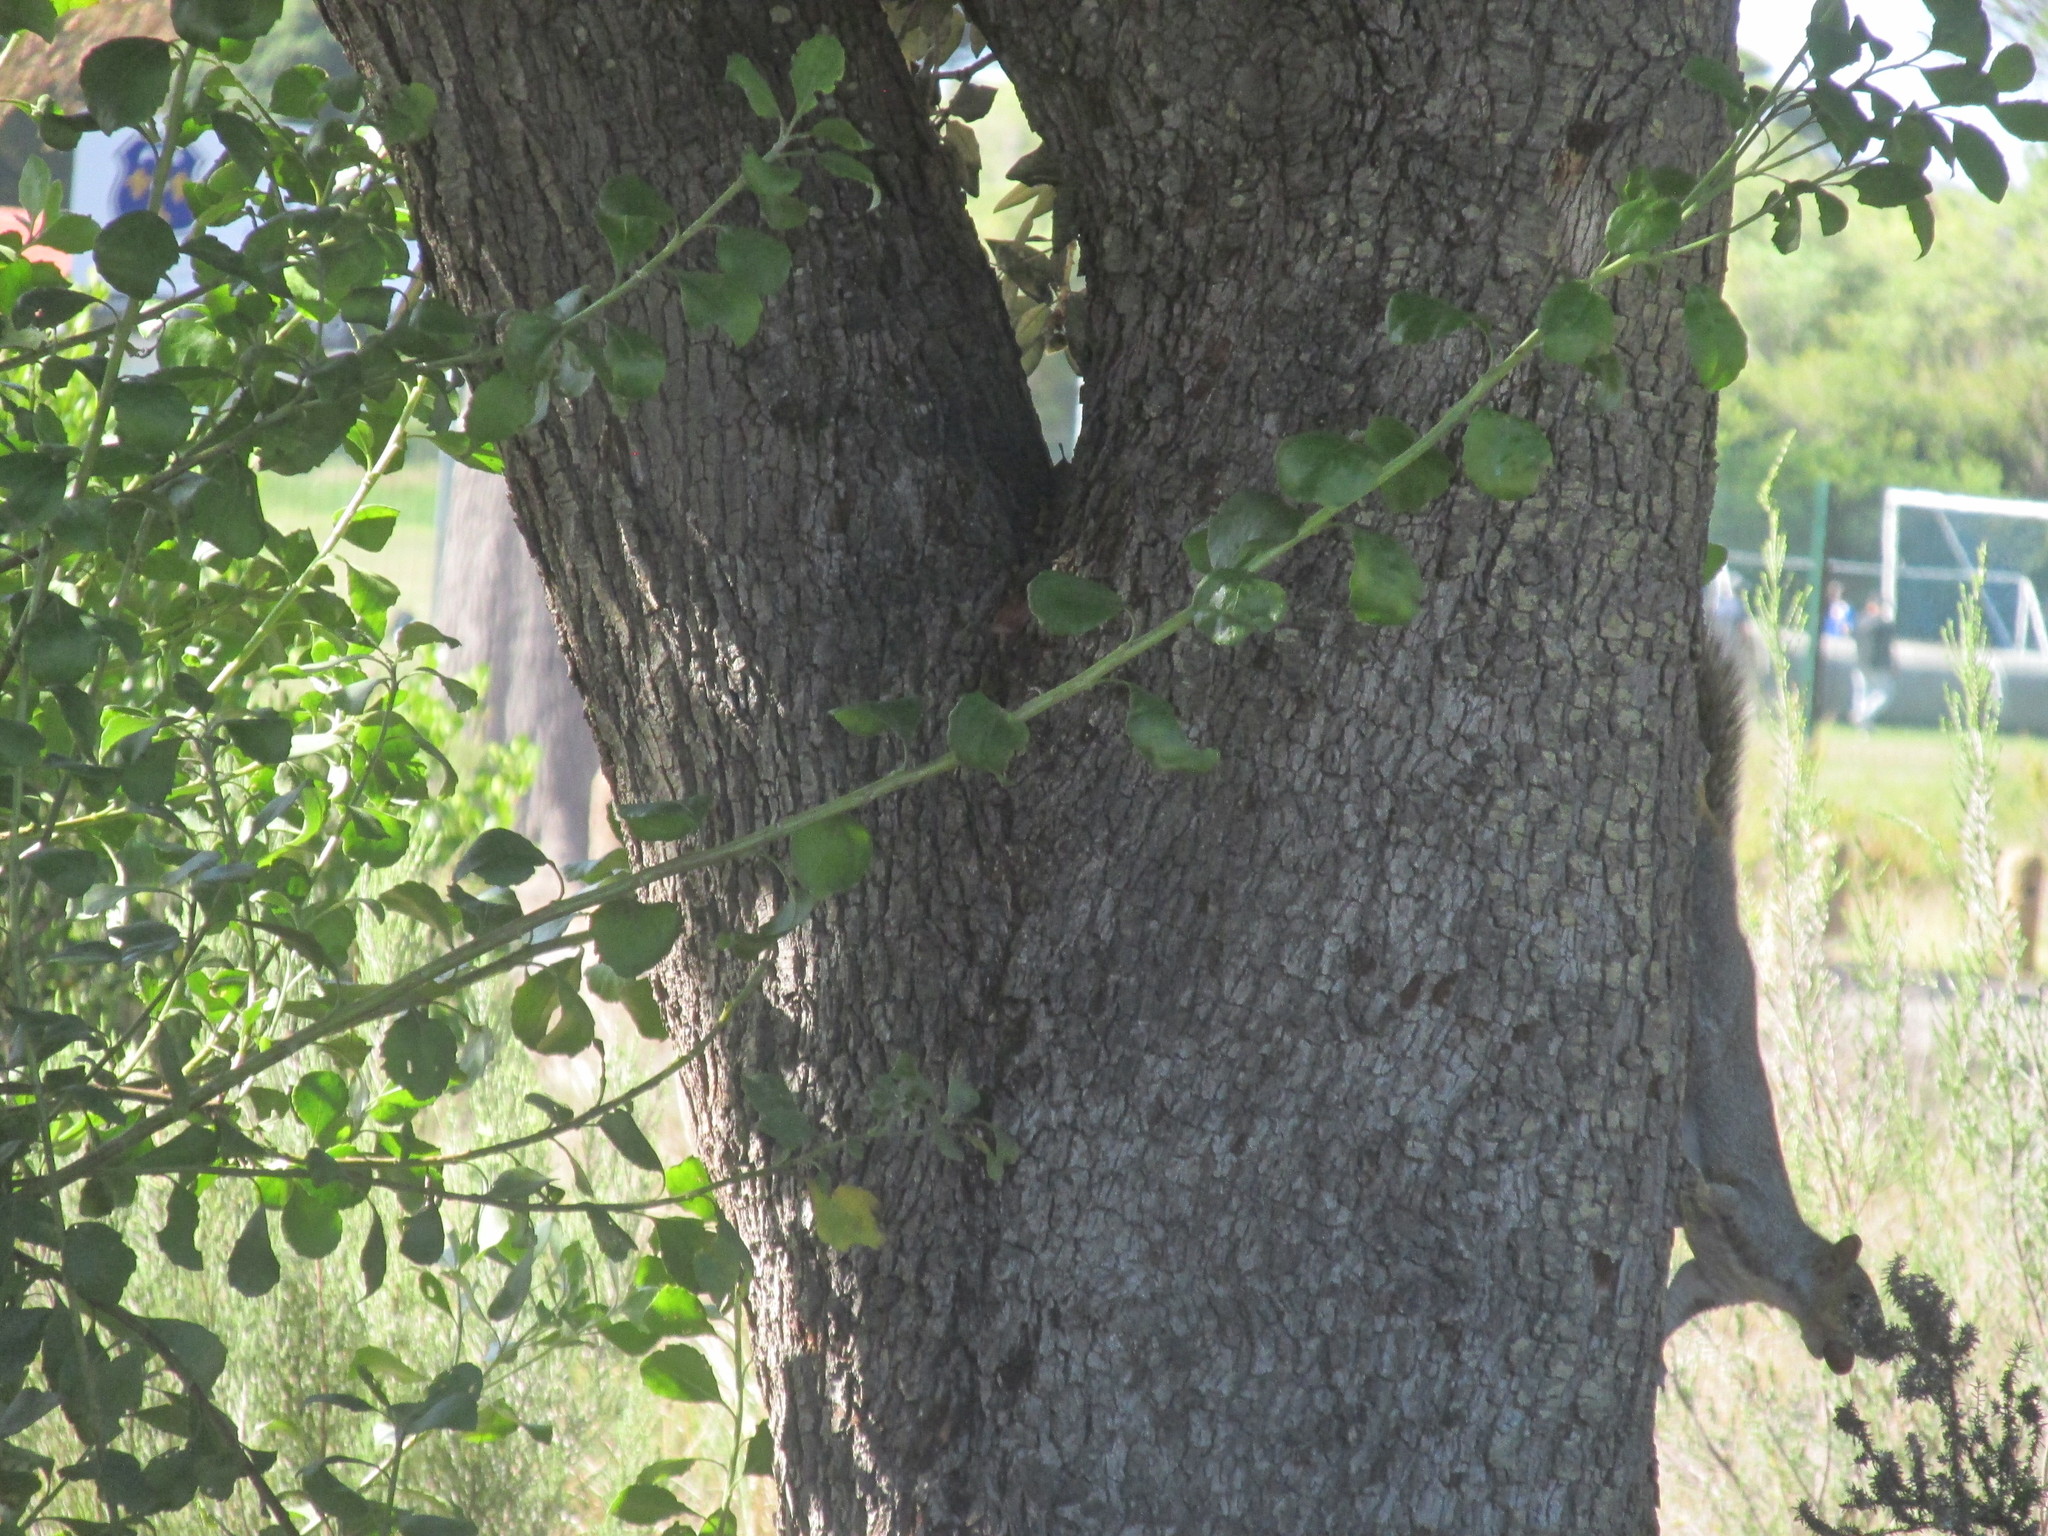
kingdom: Animalia
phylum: Chordata
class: Mammalia
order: Rodentia
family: Sciuridae
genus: Sciurus
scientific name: Sciurus carolinensis
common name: Eastern gray squirrel
